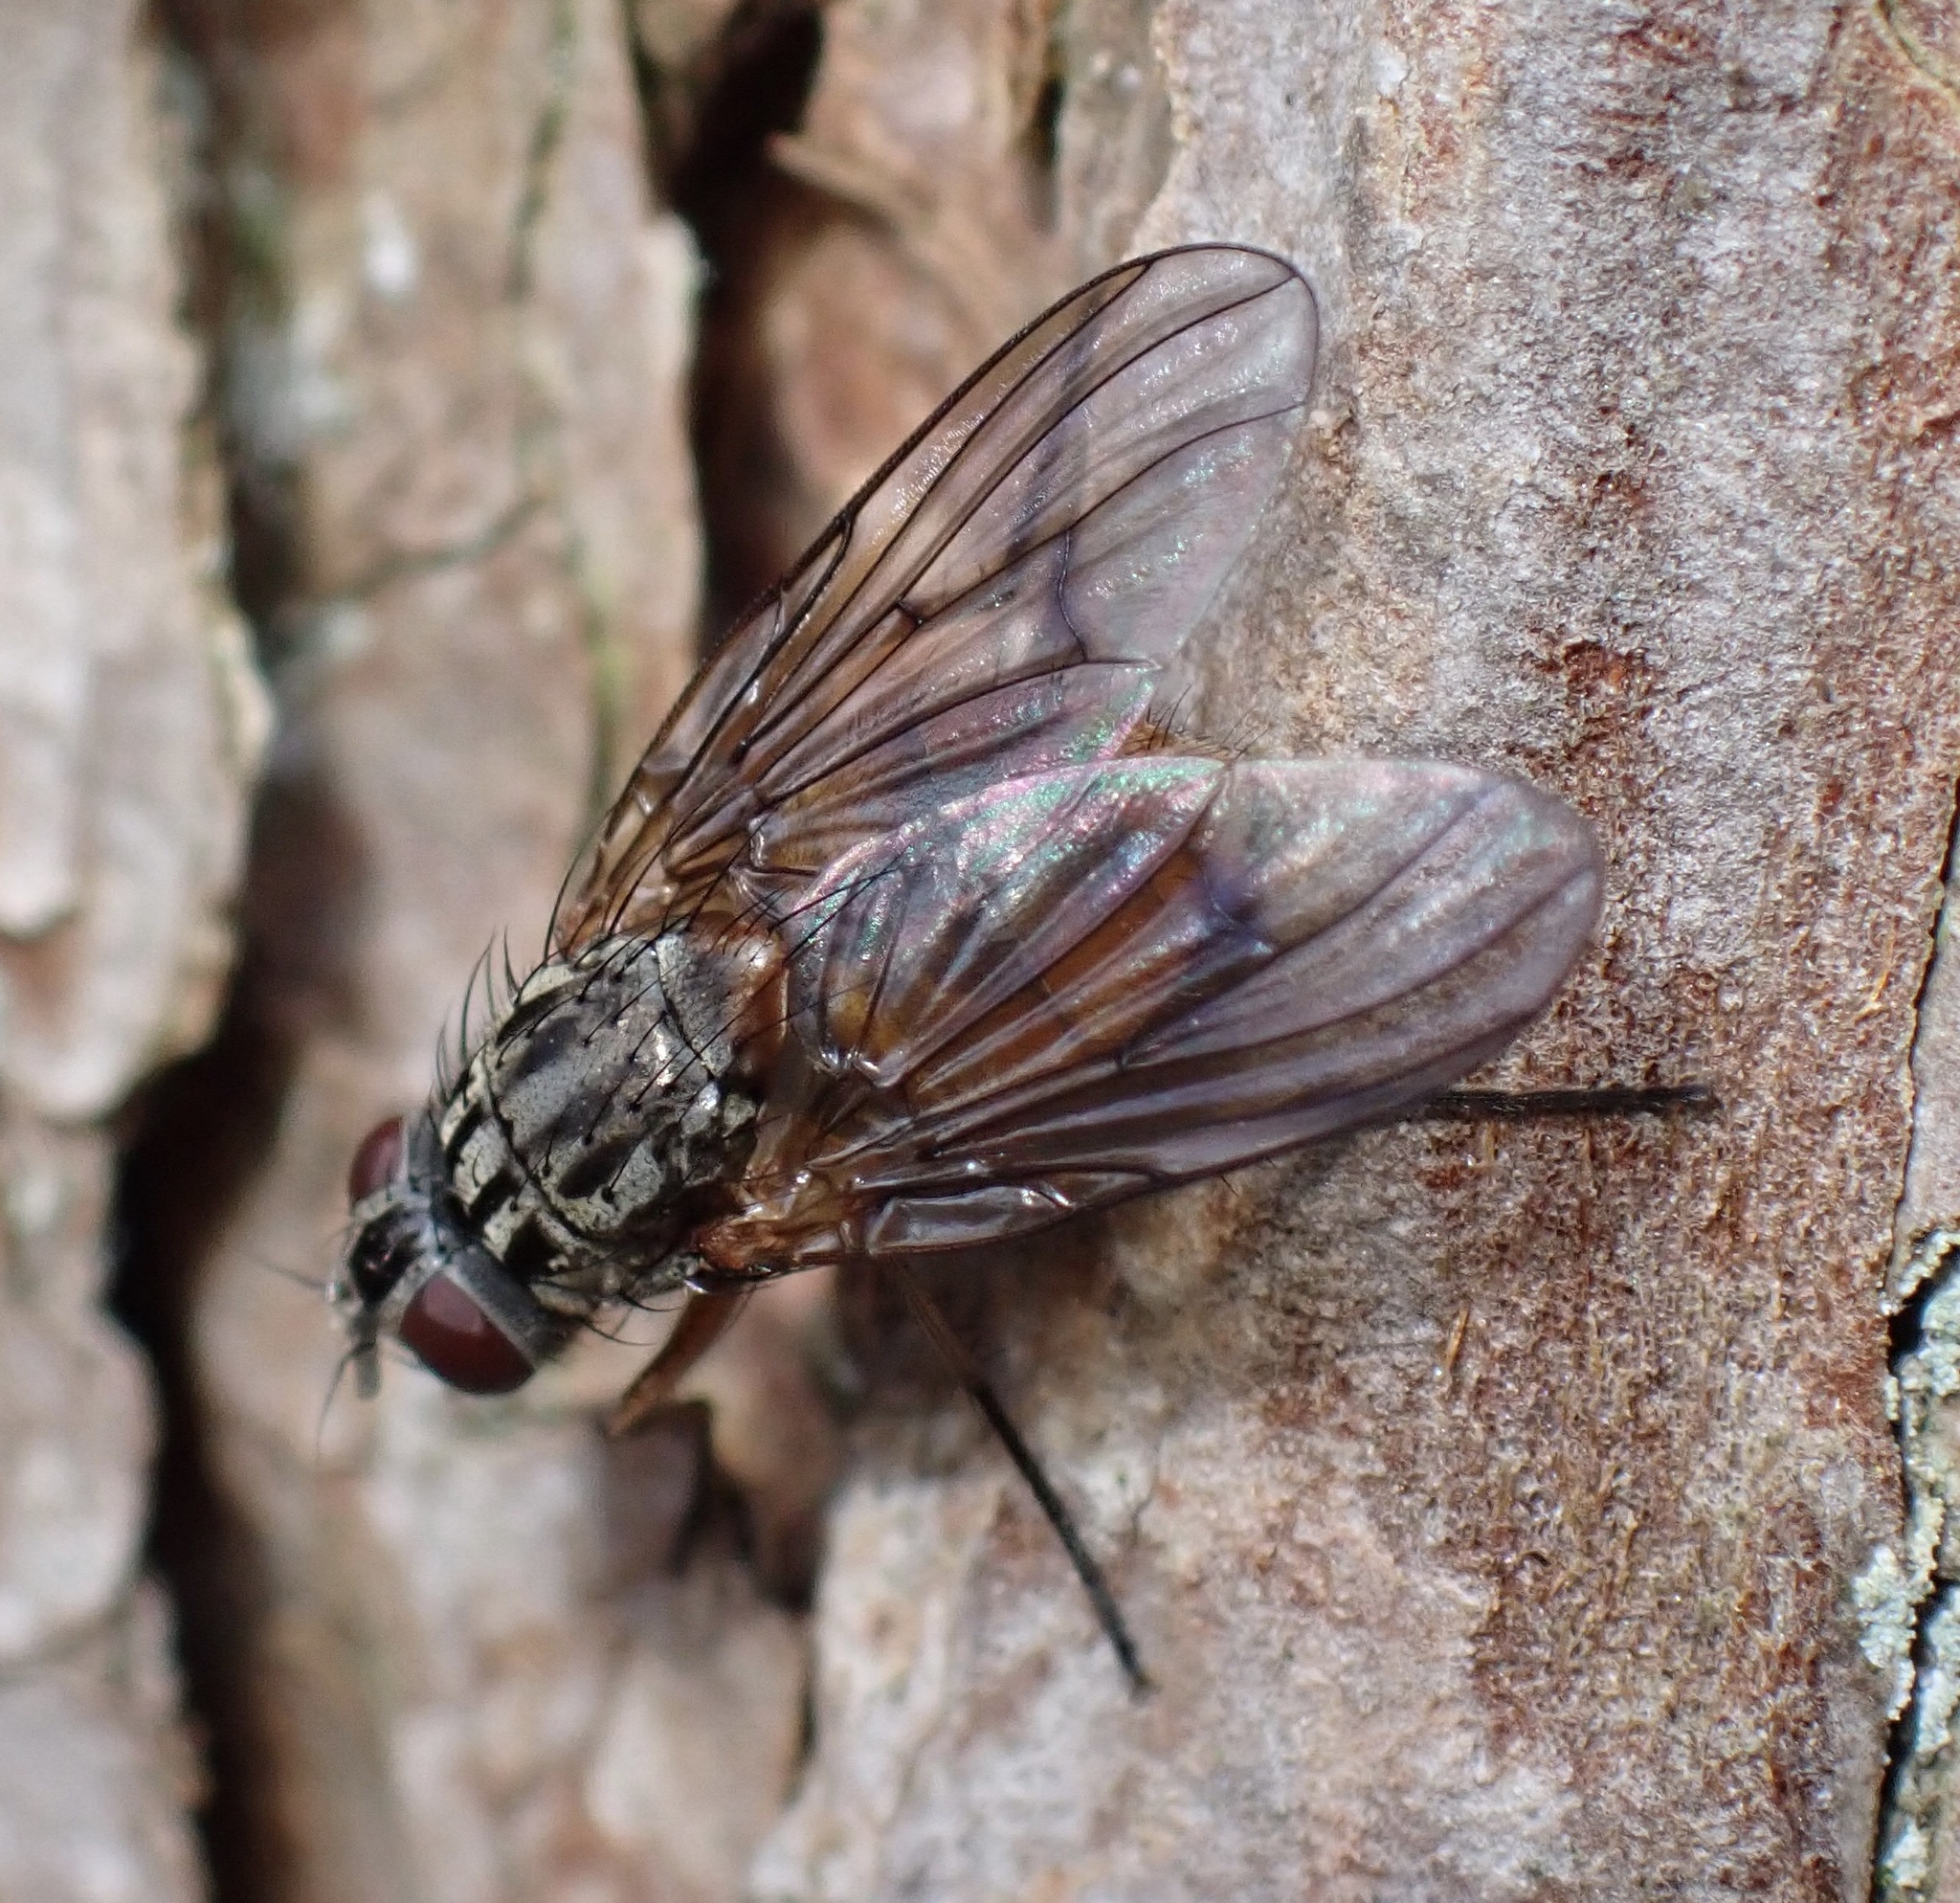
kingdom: Animalia
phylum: Arthropoda
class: Insecta
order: Diptera
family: Muscidae
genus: Phaonia
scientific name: Phaonia subventa
